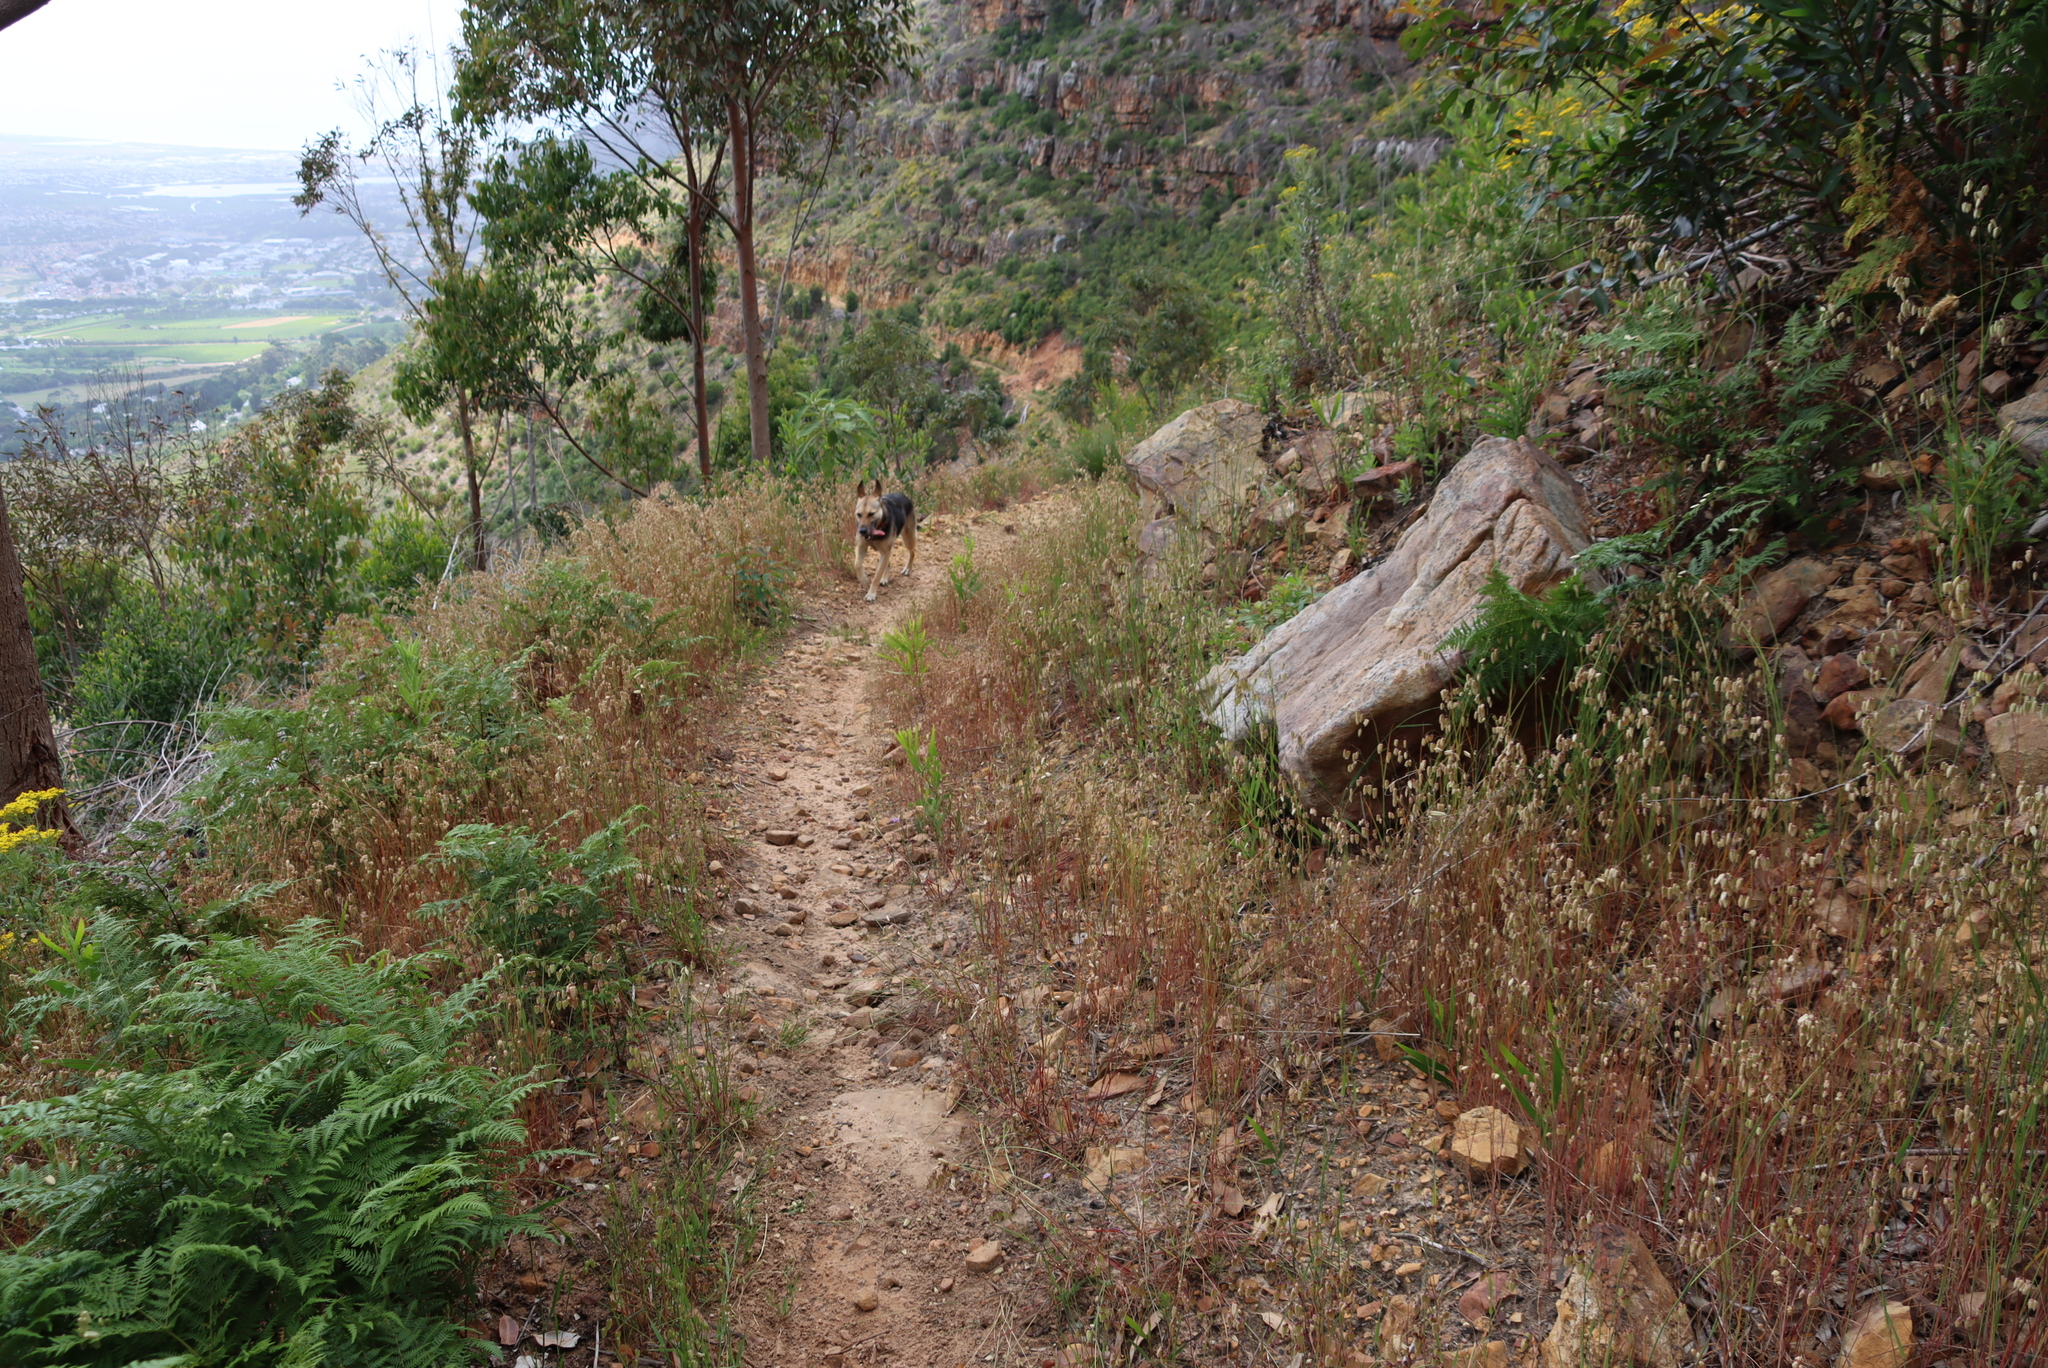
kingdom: Plantae
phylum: Tracheophyta
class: Liliopsida
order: Poales
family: Poaceae
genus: Briza
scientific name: Briza maxima
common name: Big quakinggrass
